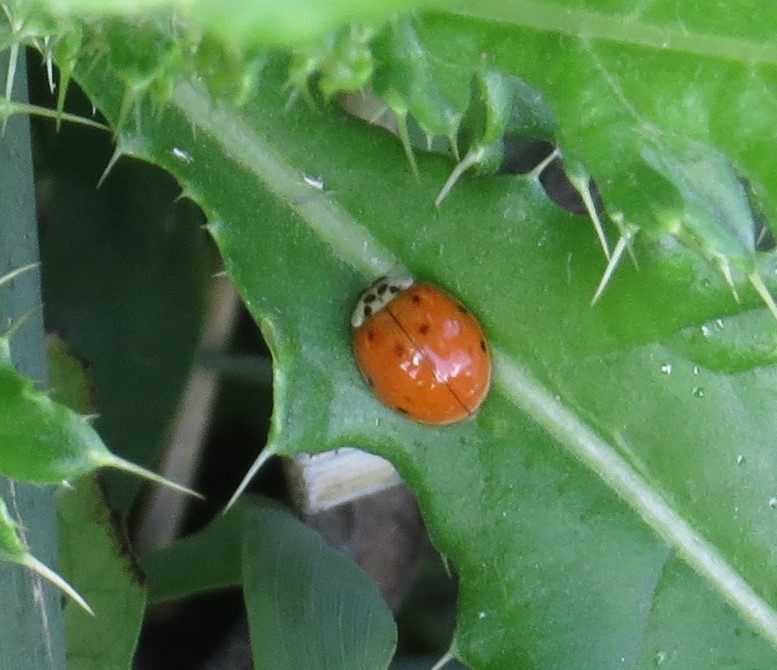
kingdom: Animalia
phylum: Arthropoda
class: Insecta
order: Coleoptera
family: Coccinellidae
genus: Harmonia
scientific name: Harmonia axyridis
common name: Harlequin ladybird
